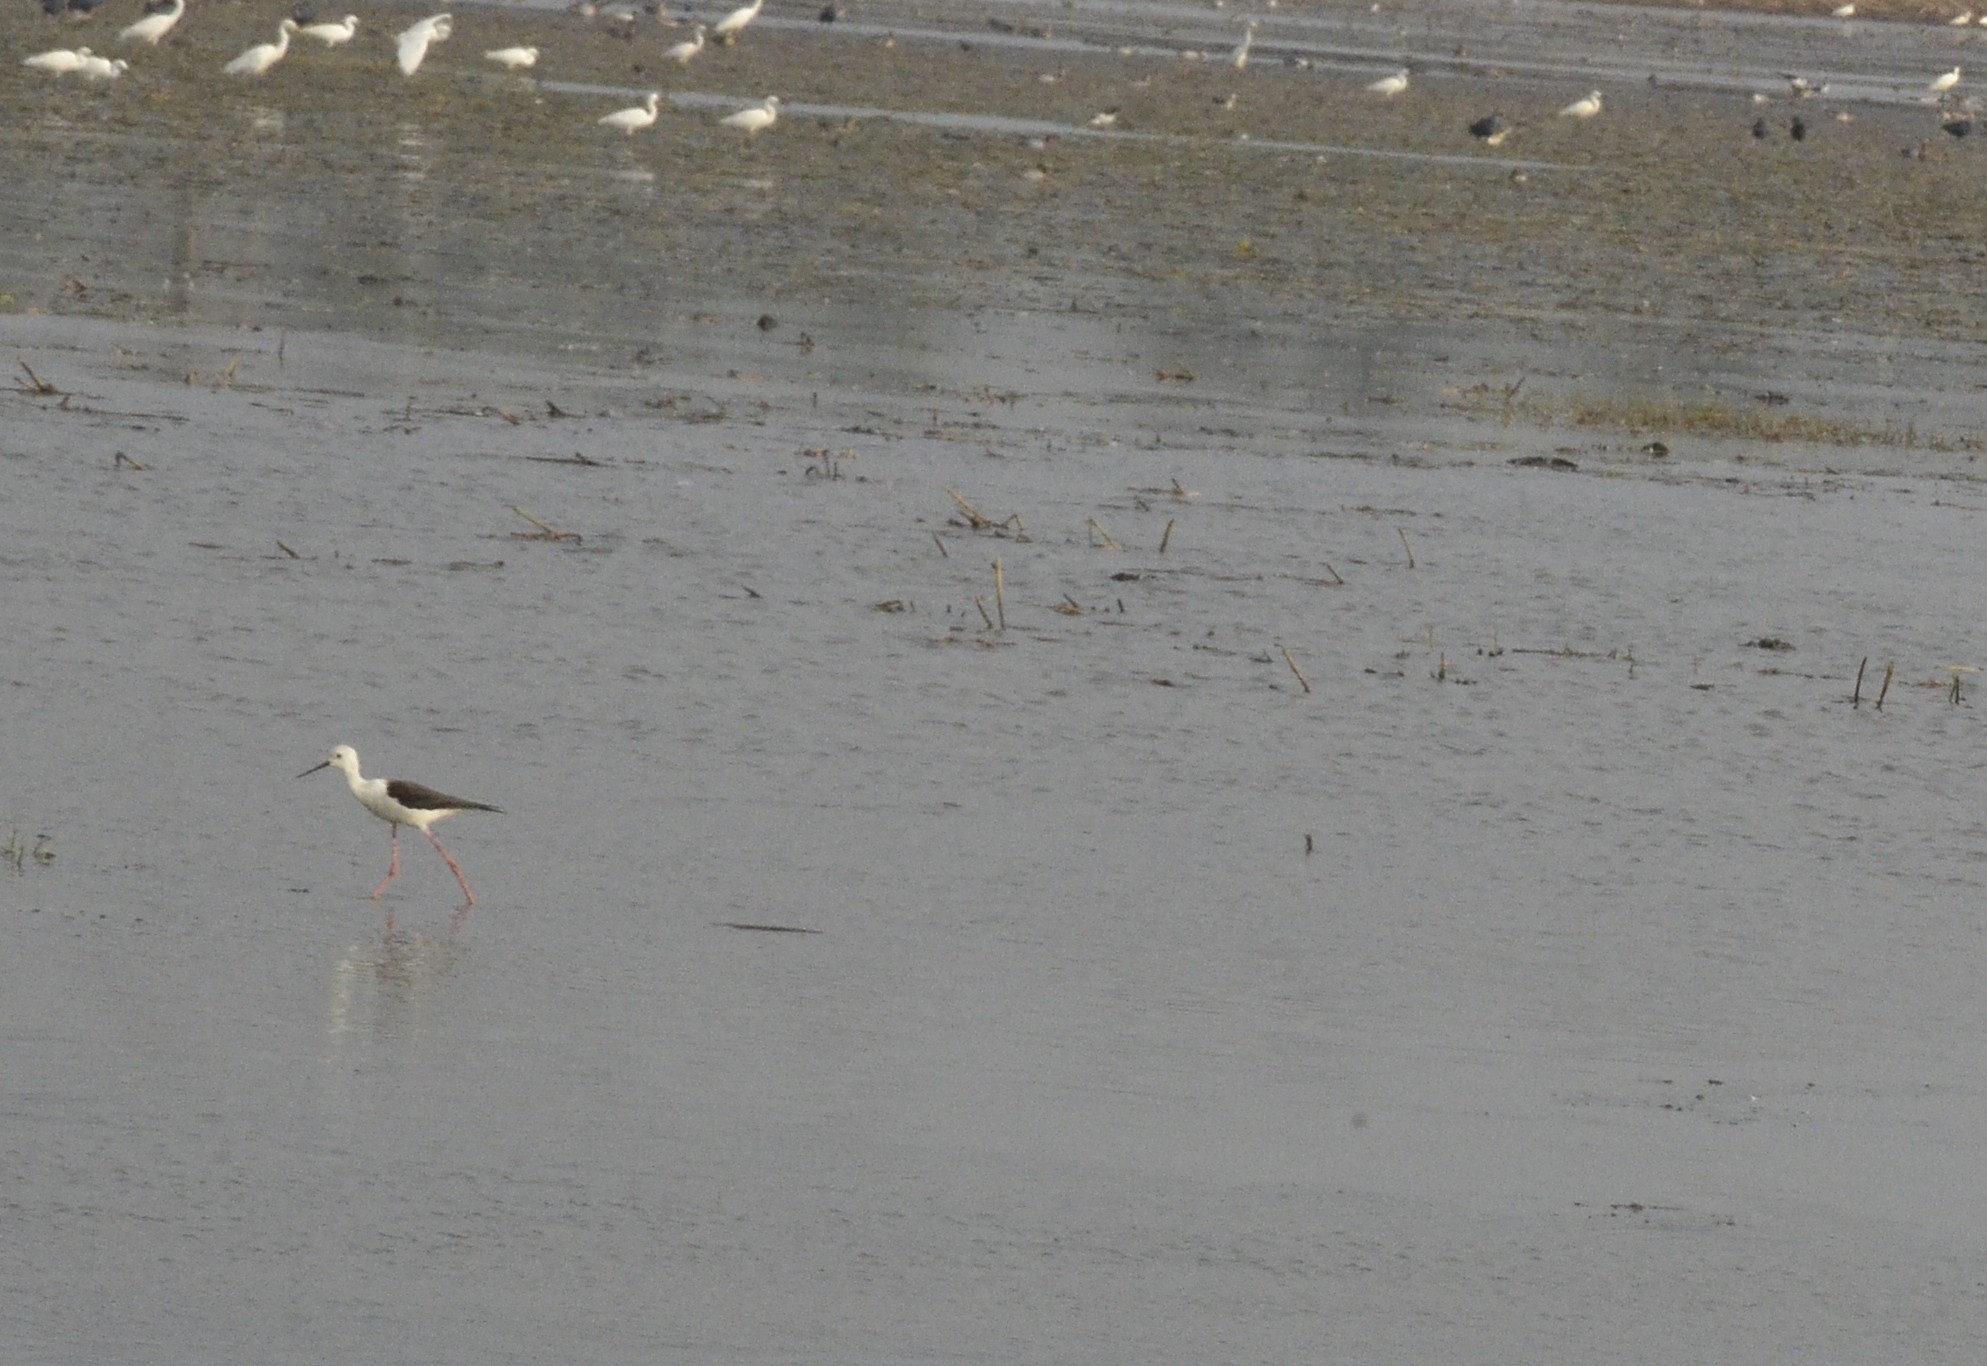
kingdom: Animalia
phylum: Chordata
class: Aves
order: Charadriiformes
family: Recurvirostridae
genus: Himantopus
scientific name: Himantopus himantopus
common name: Black-winged stilt
